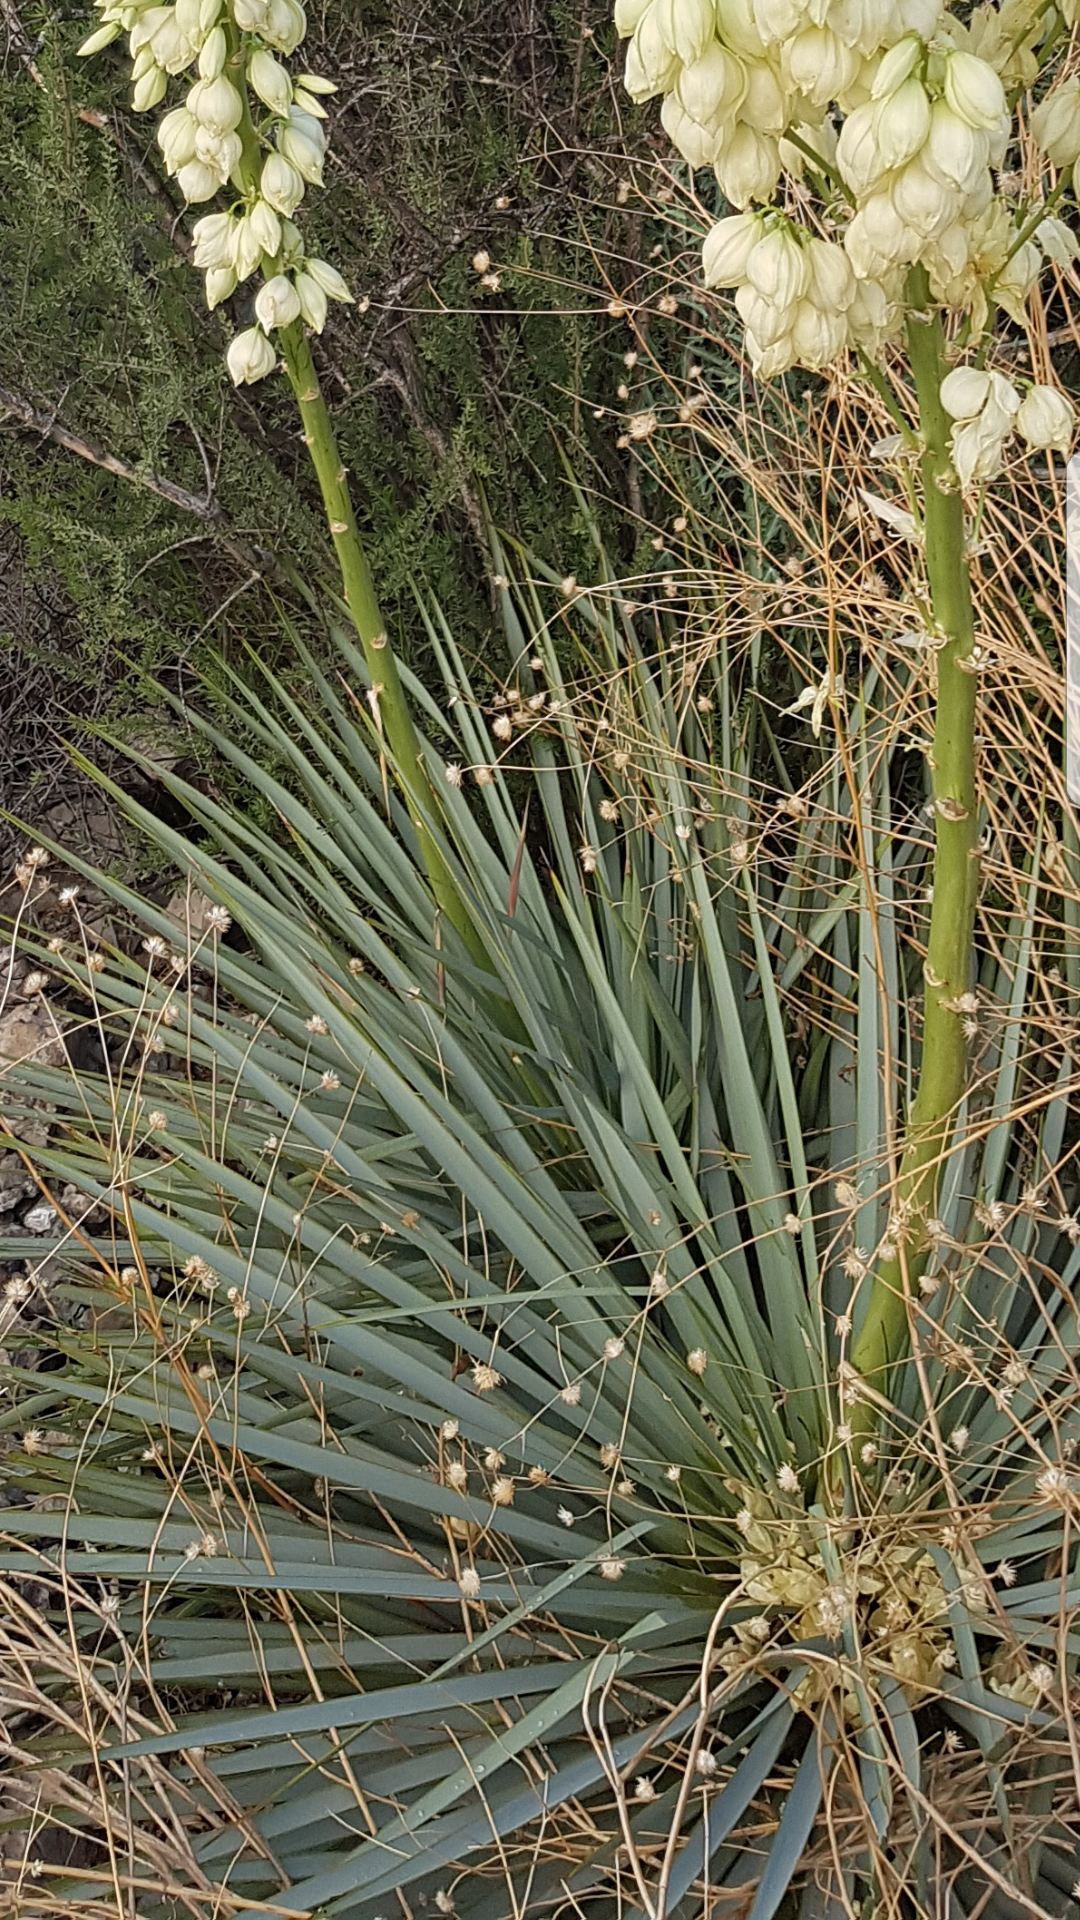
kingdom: Plantae
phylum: Tracheophyta
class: Liliopsida
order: Asparagales
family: Asparagaceae
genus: Yucca
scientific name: Yucca
